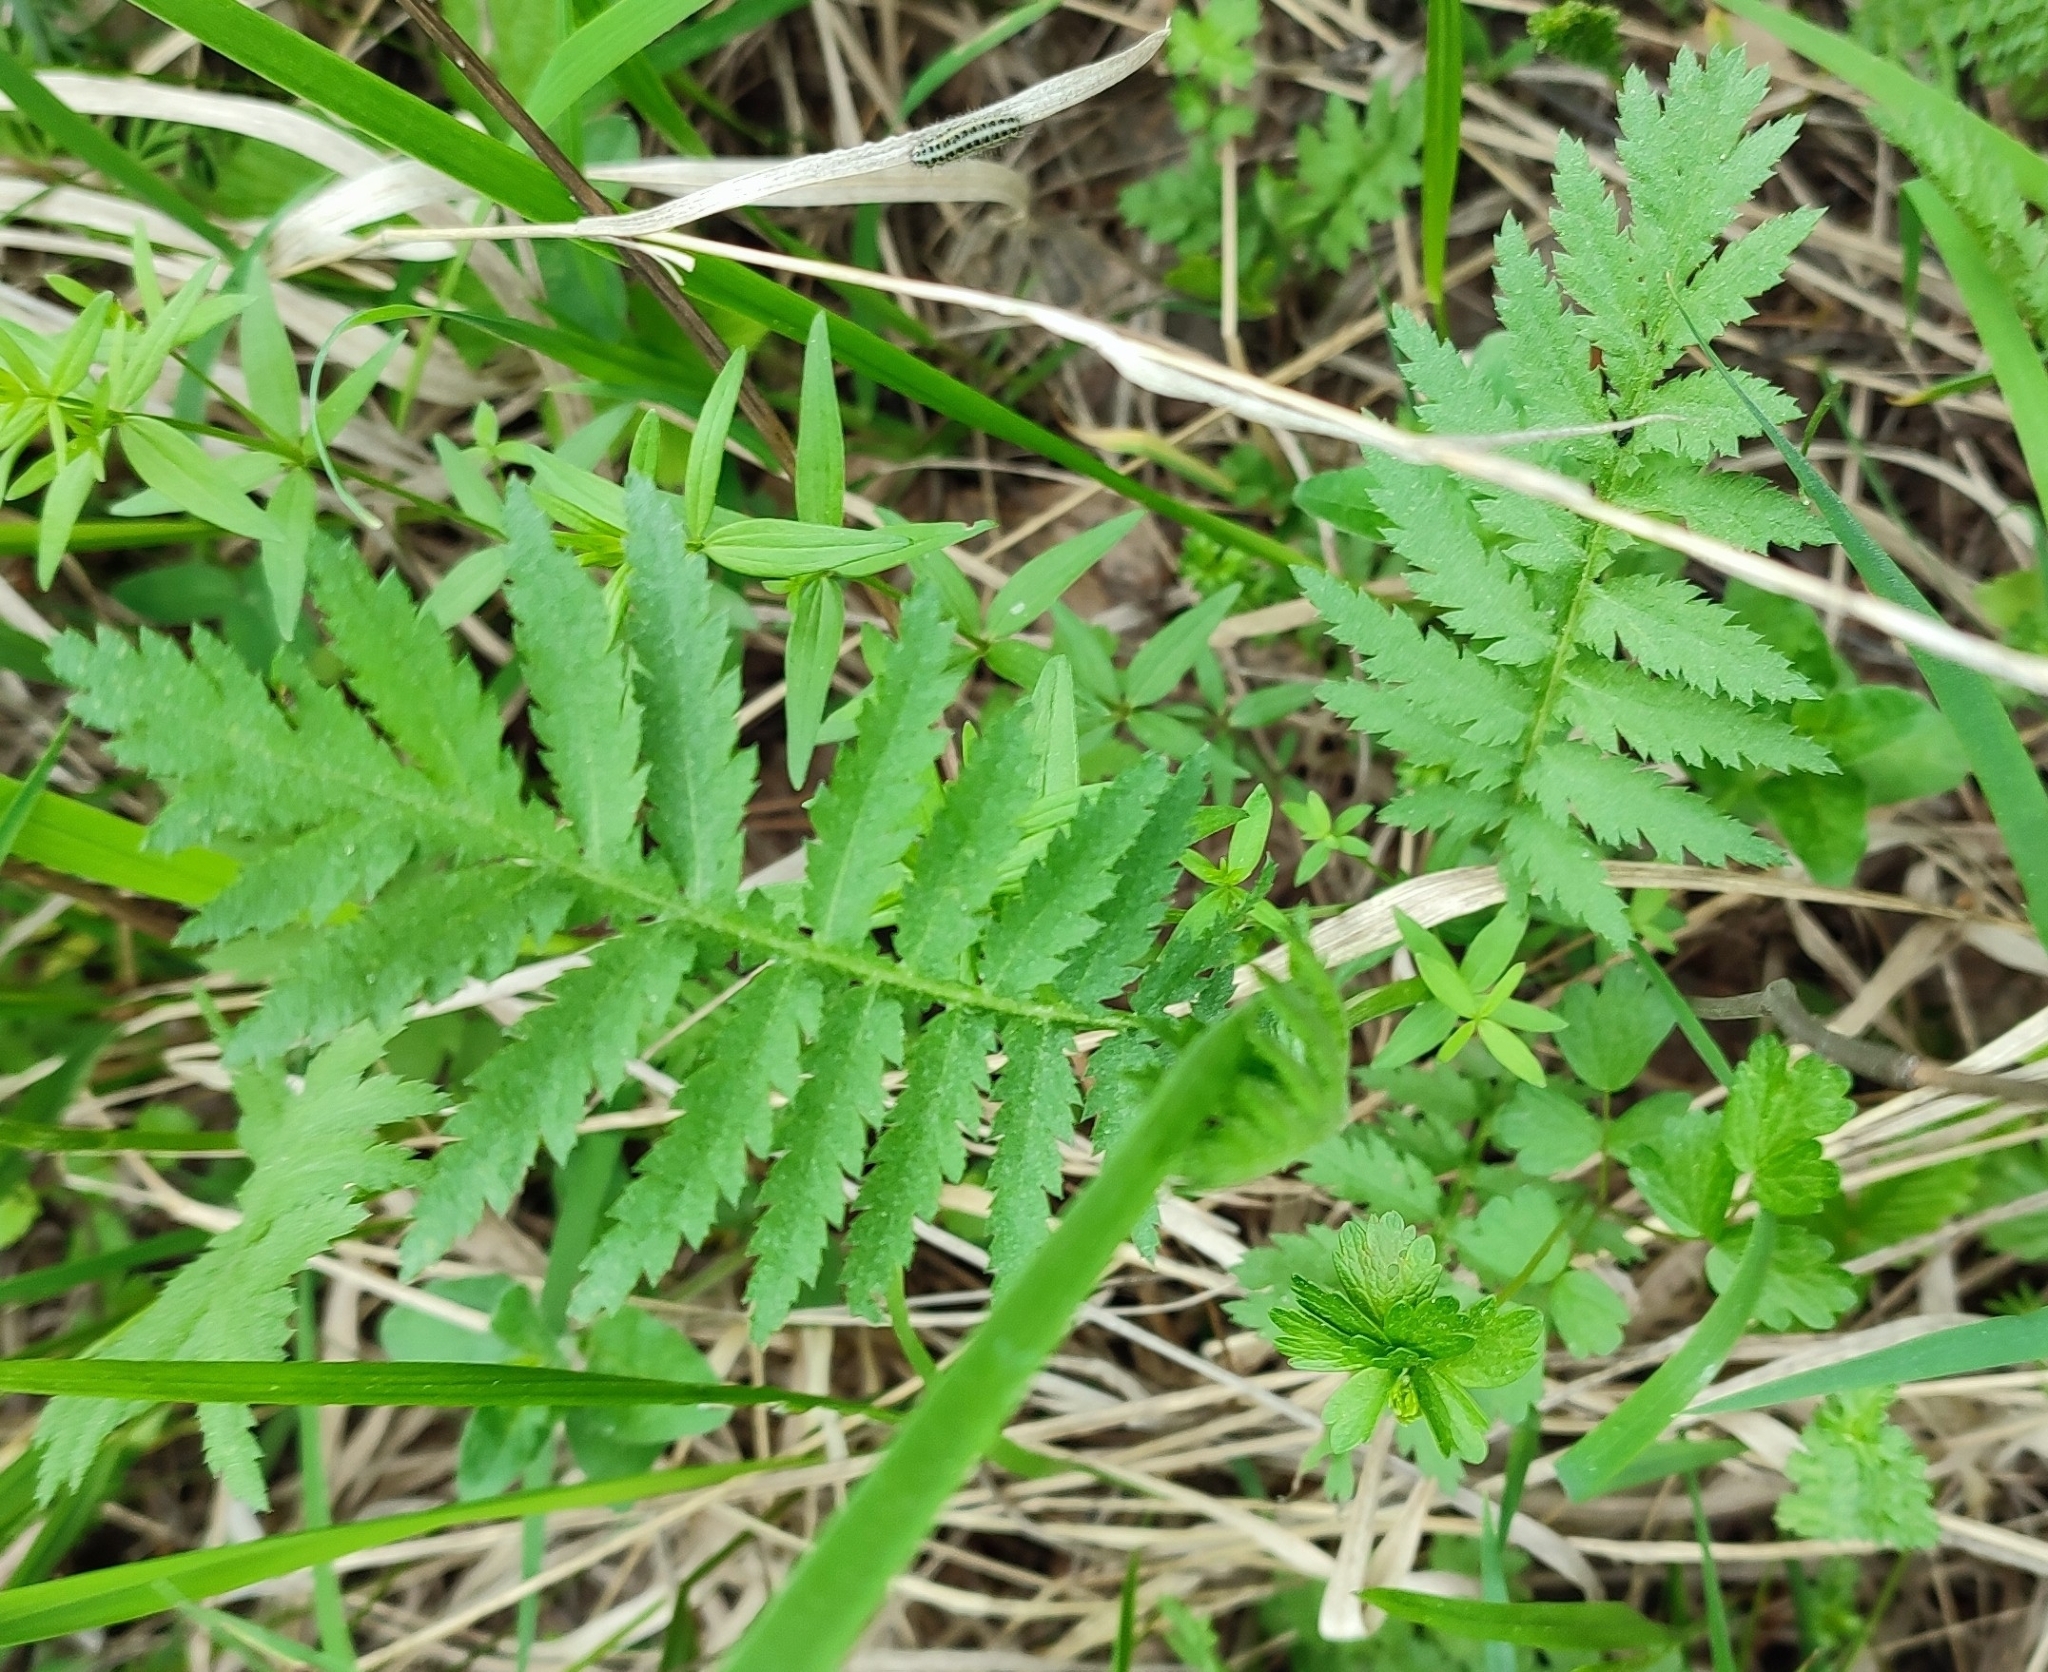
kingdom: Plantae
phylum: Tracheophyta
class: Magnoliopsida
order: Asterales
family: Asteraceae
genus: Tanacetum
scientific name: Tanacetum vulgare
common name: Common tansy
